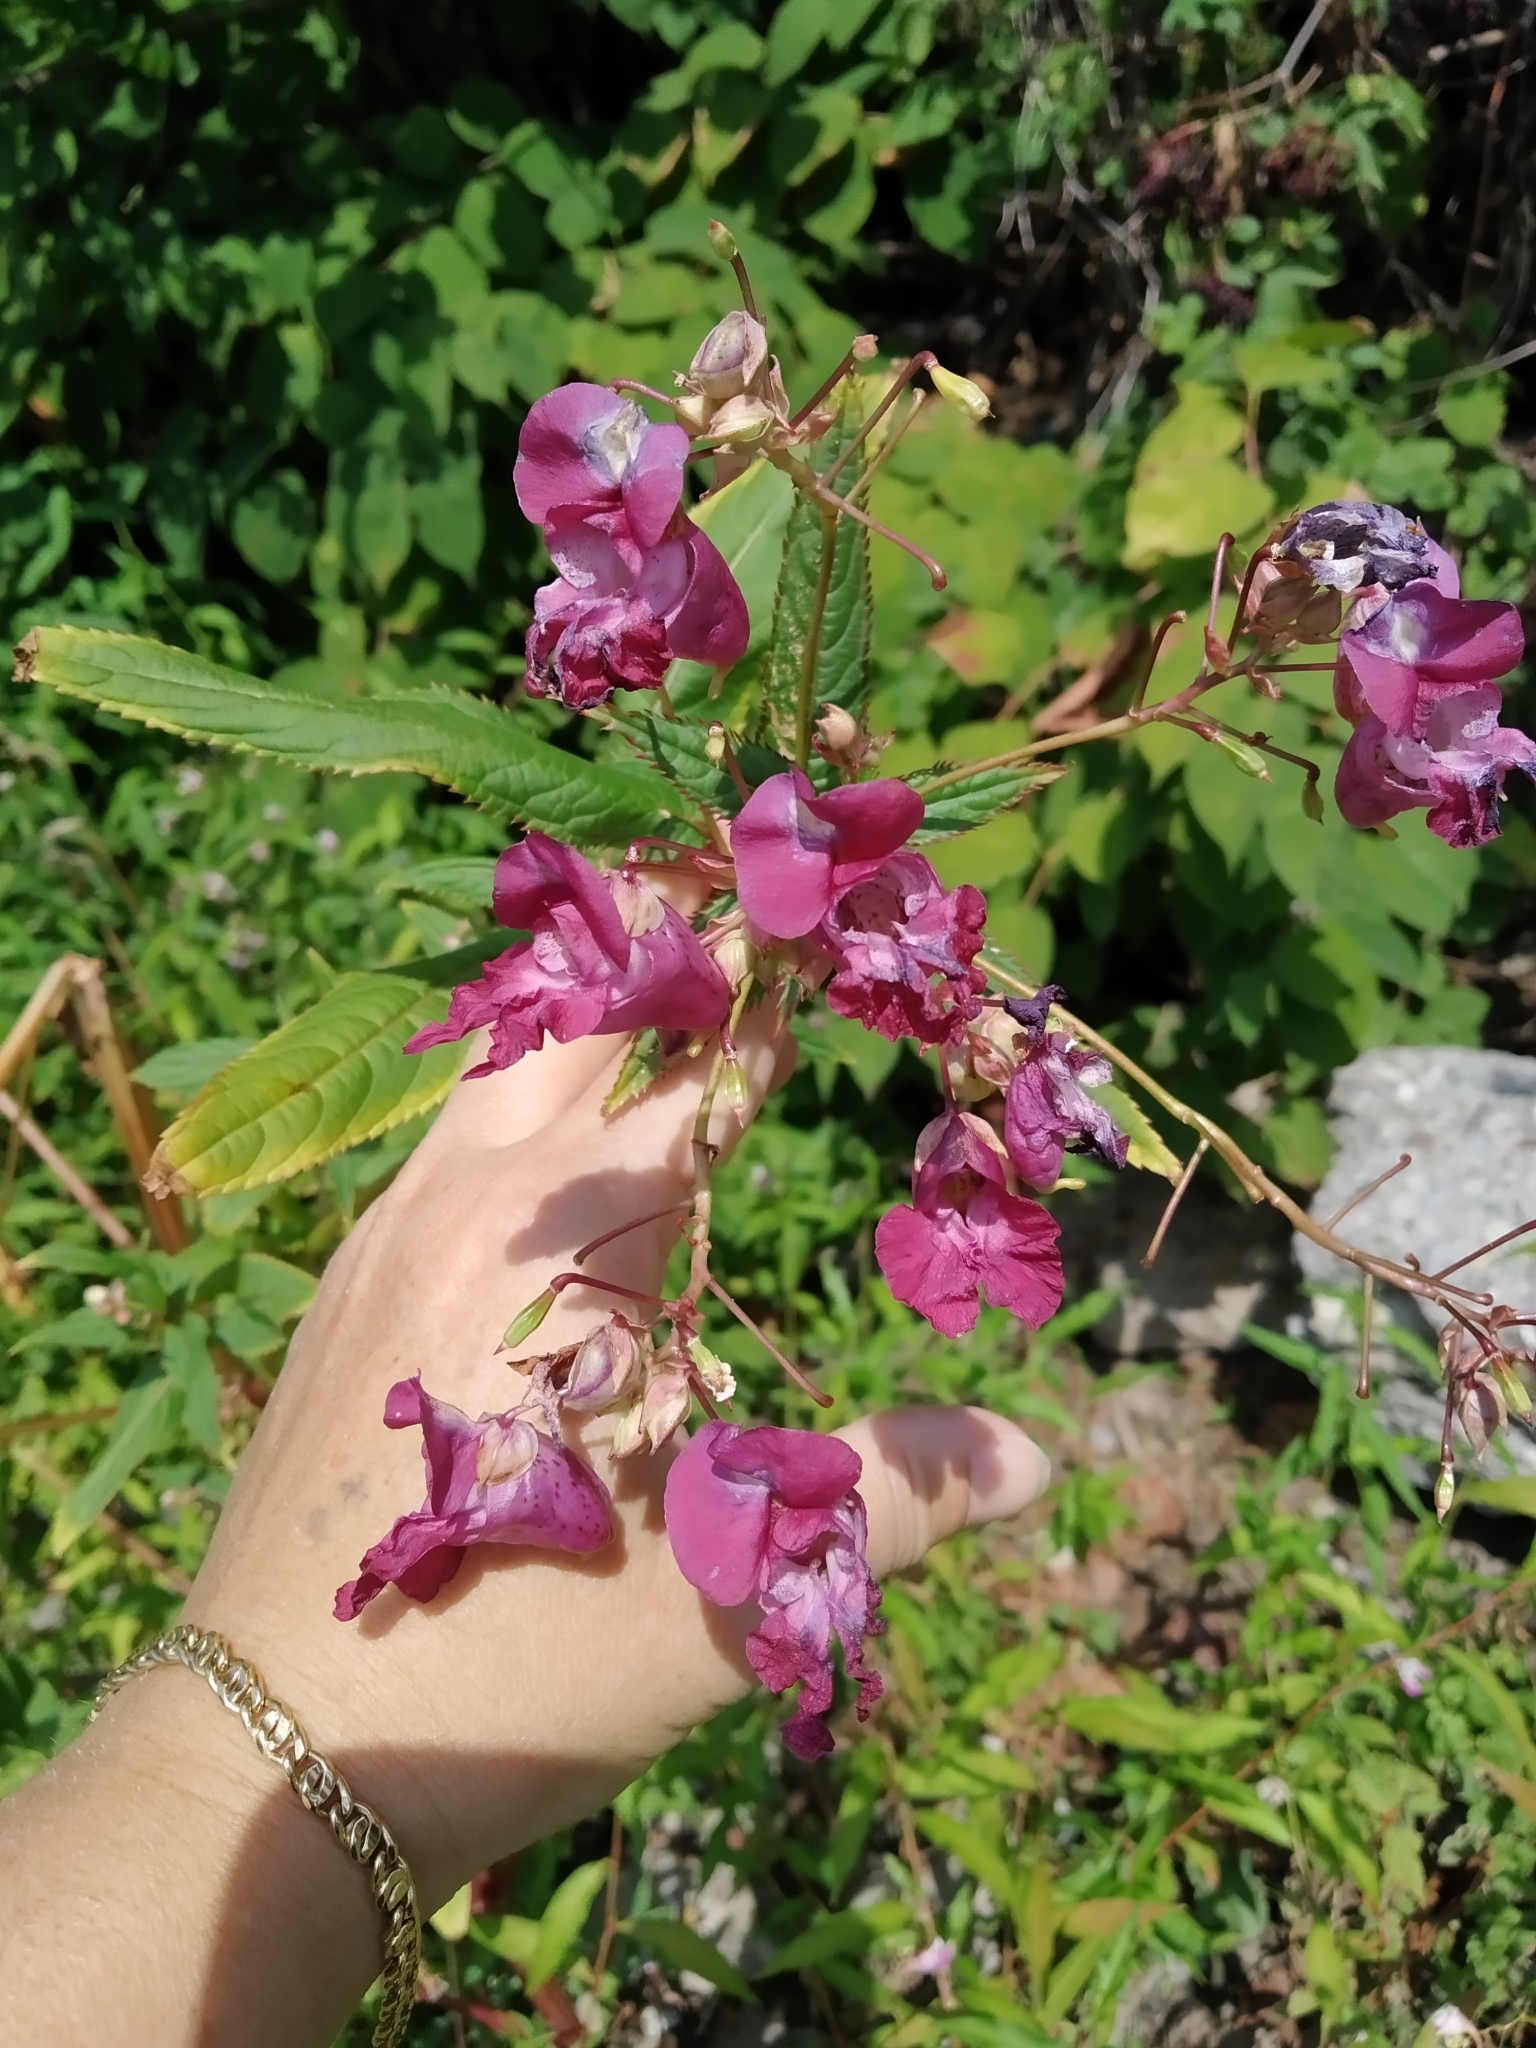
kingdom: Plantae
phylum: Tracheophyta
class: Magnoliopsida
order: Ericales
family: Balsaminaceae
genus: Impatiens
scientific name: Impatiens glandulifera
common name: Himalayan balsam
